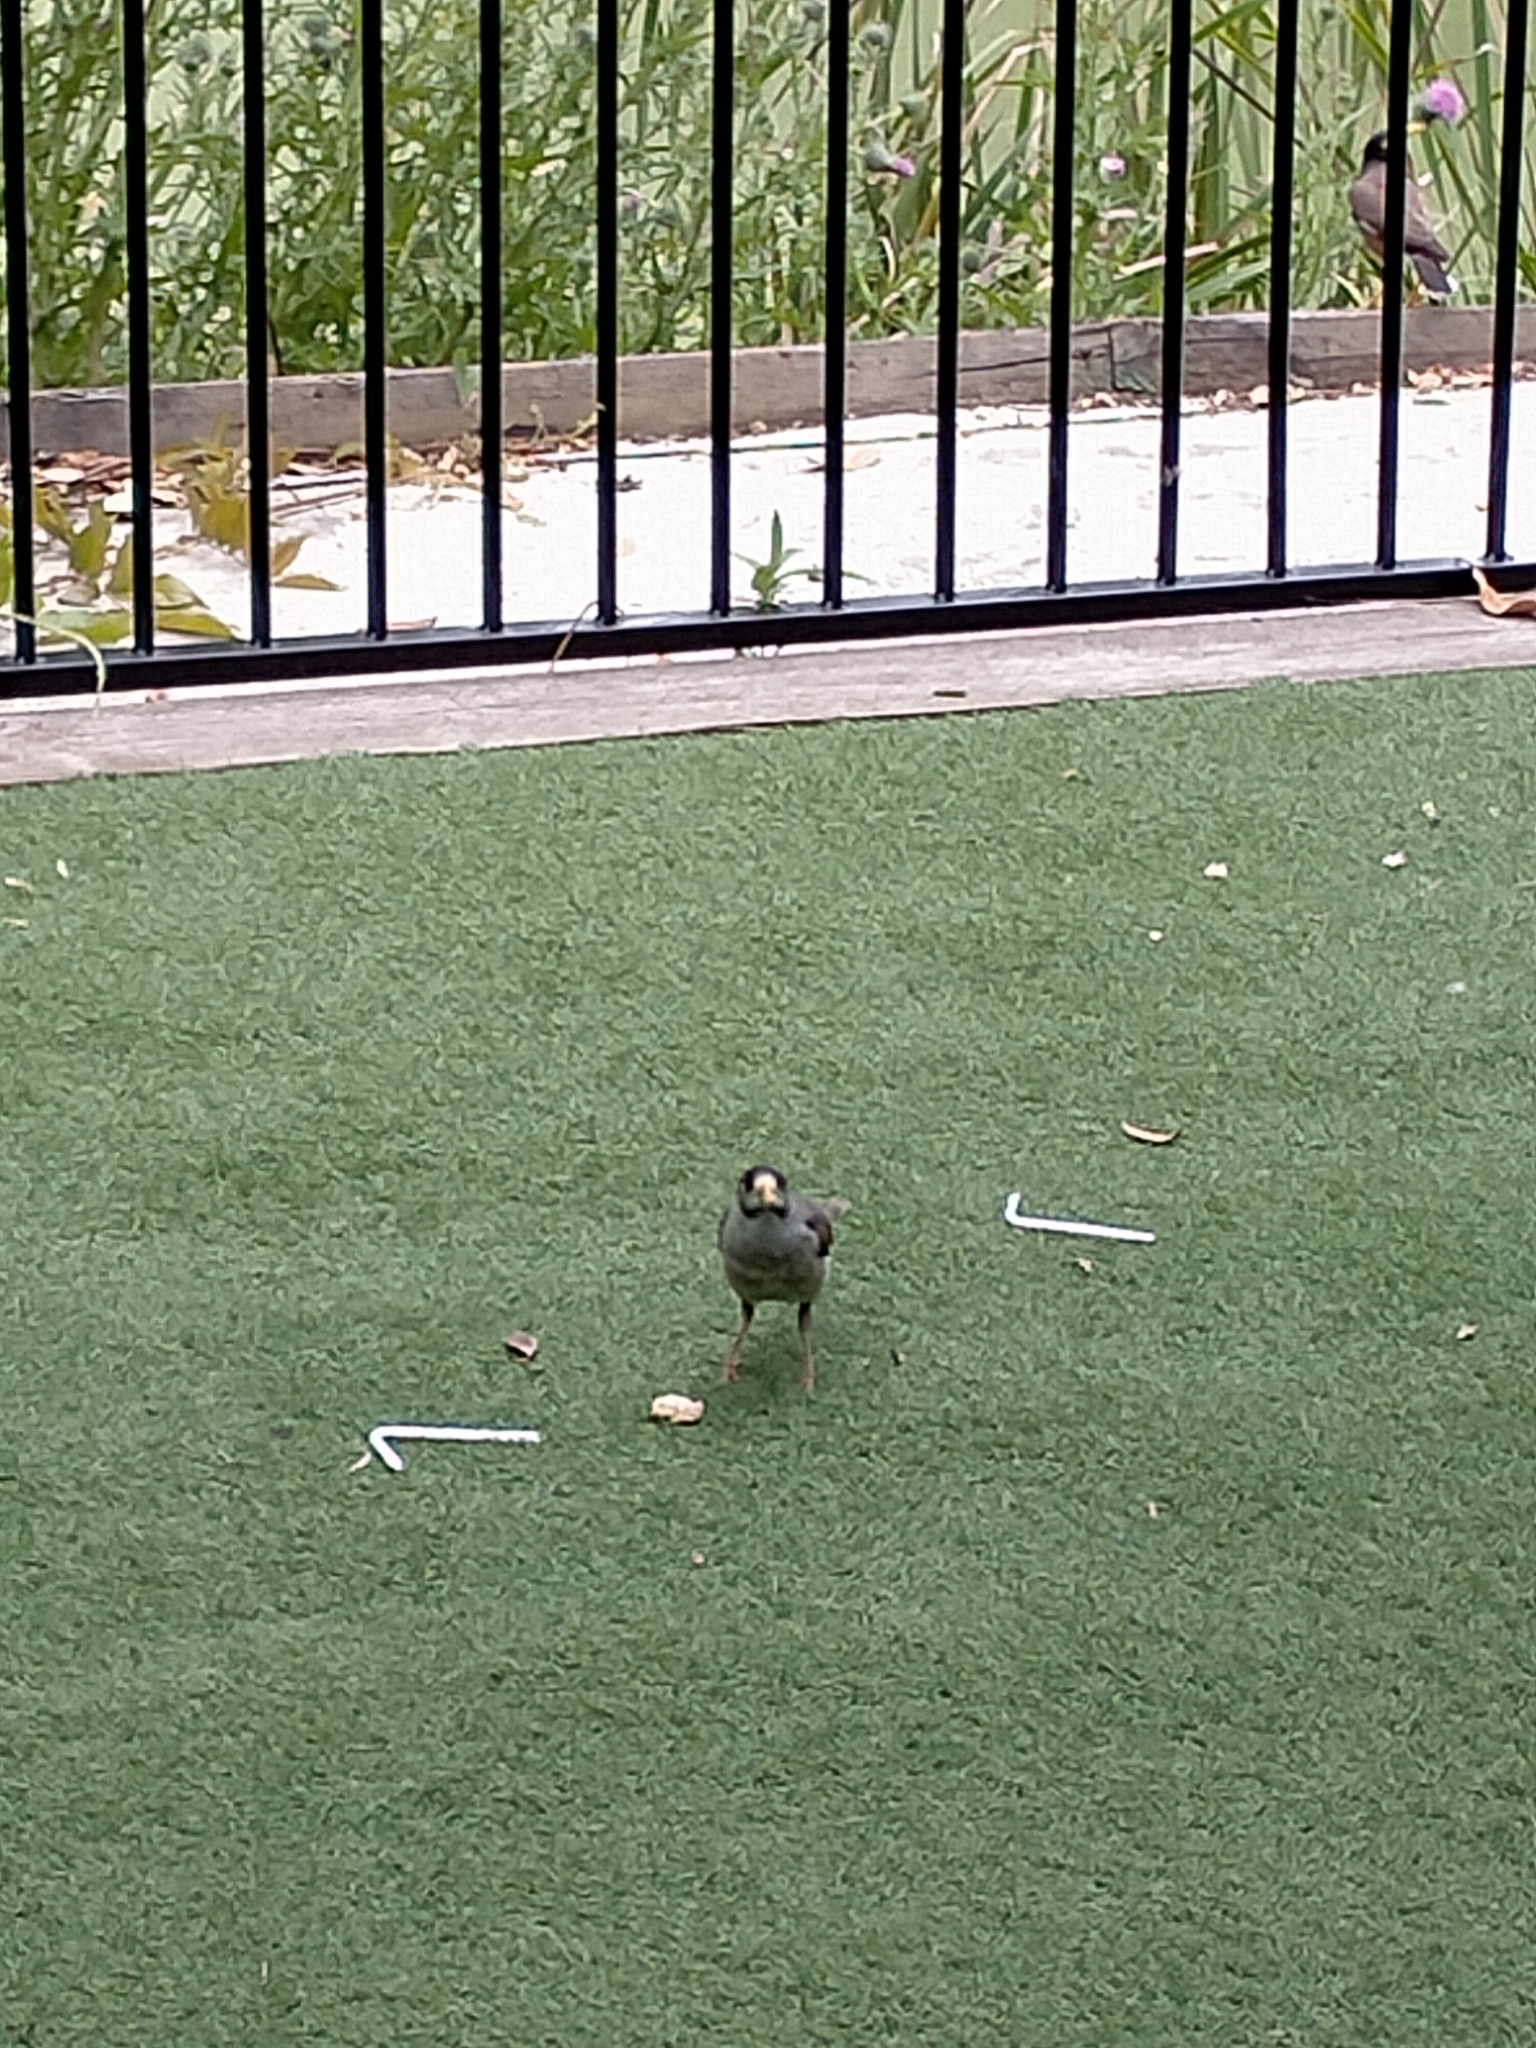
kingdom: Animalia
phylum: Chordata
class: Aves
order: Passeriformes
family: Meliphagidae
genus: Manorina
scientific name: Manorina melanocephala
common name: Noisy miner
